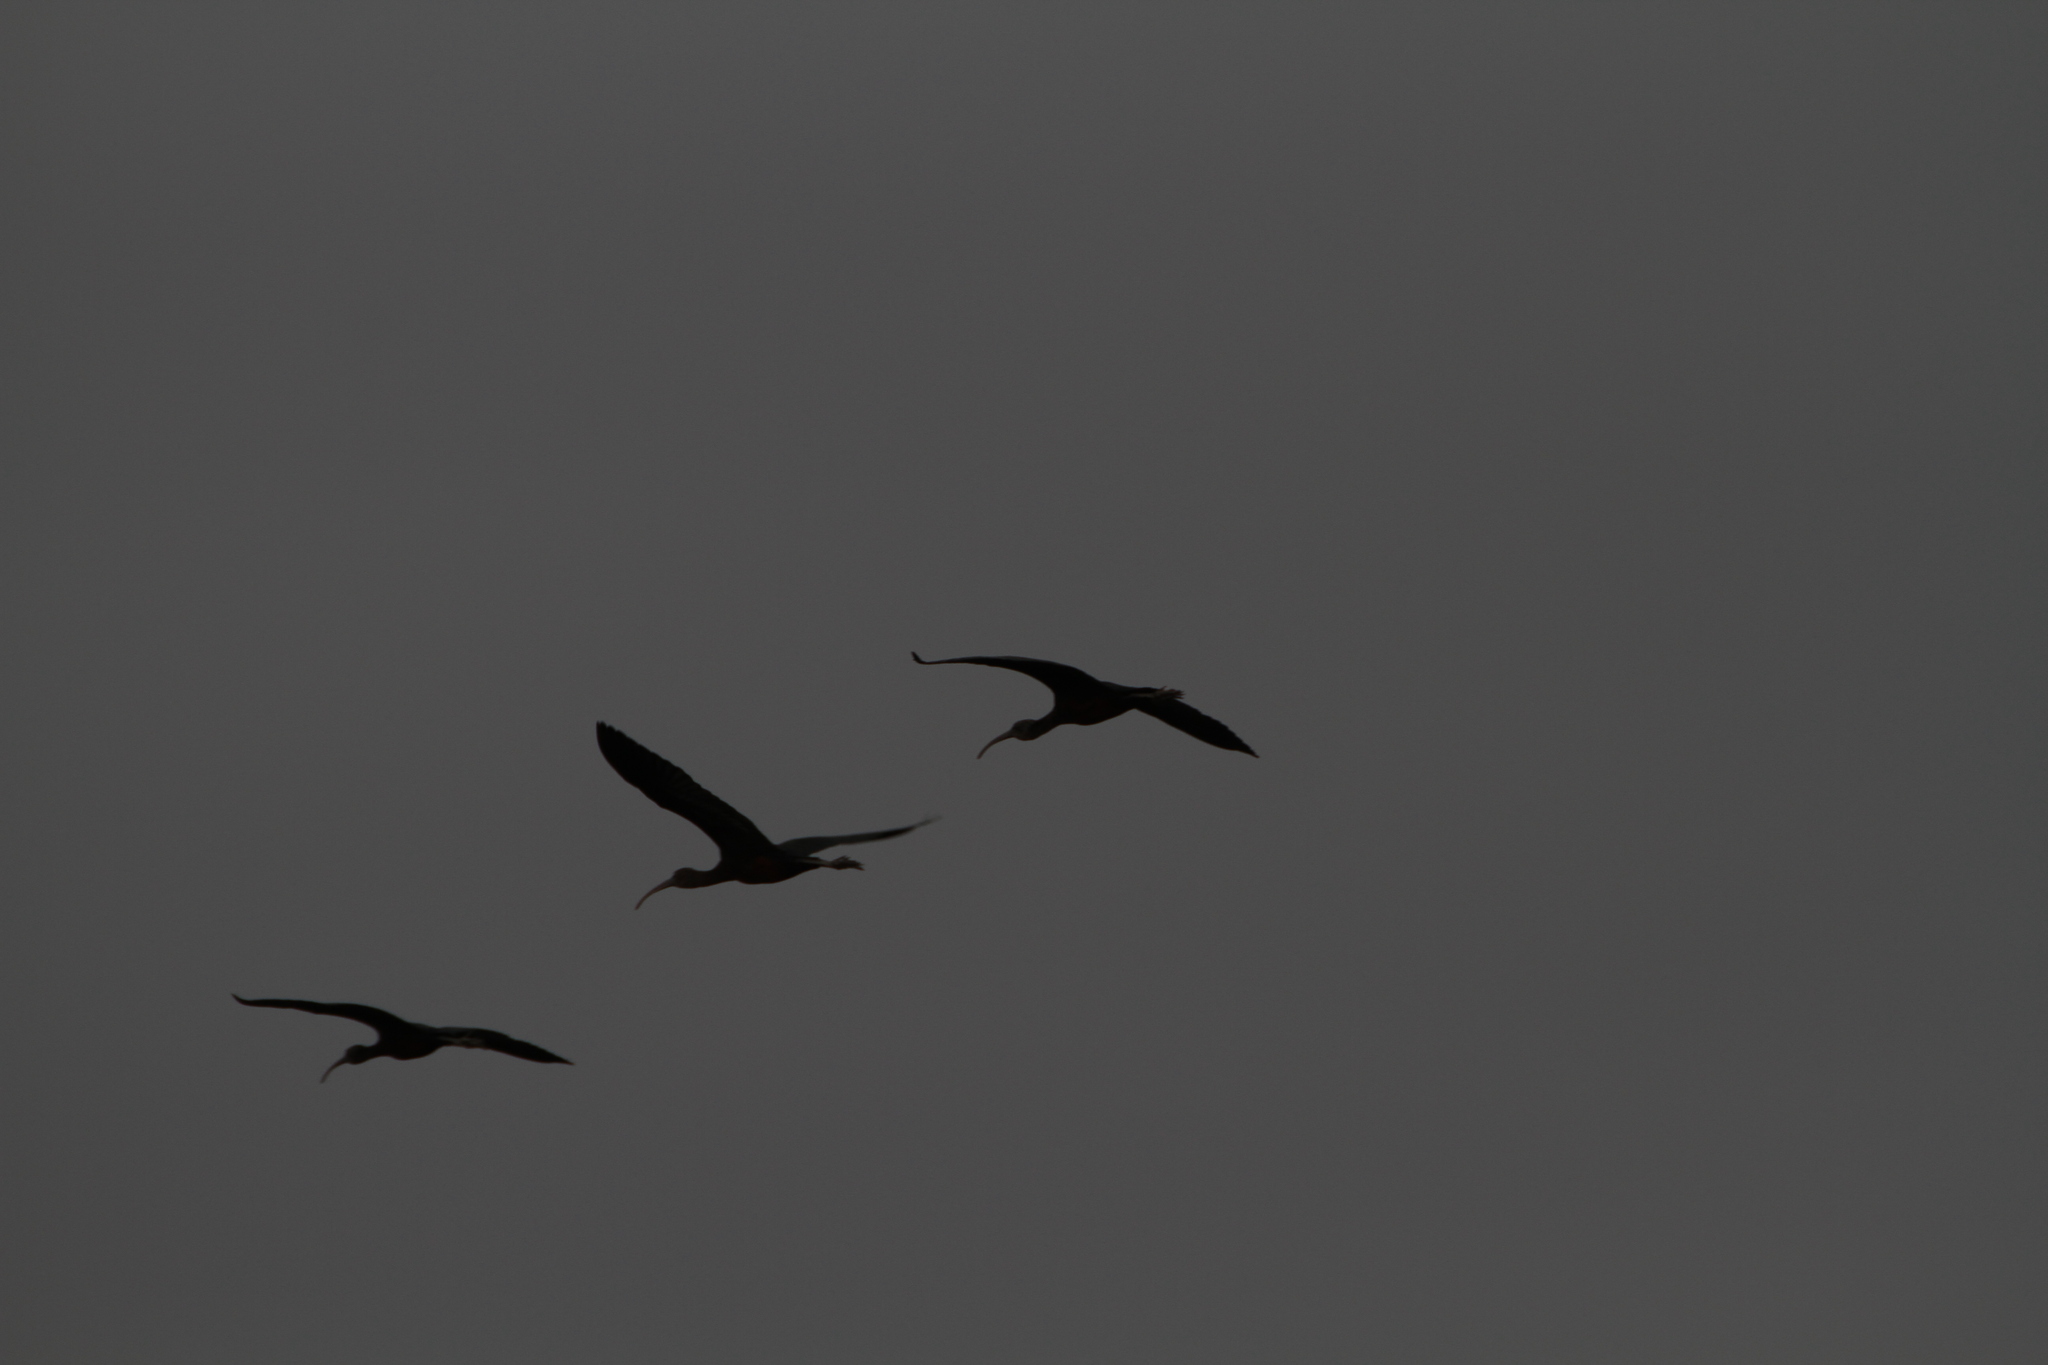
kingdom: Animalia
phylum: Chordata
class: Aves
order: Pelecaniformes
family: Threskiornithidae
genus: Plegadis
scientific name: Plegadis falcinellus
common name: Glossy ibis
